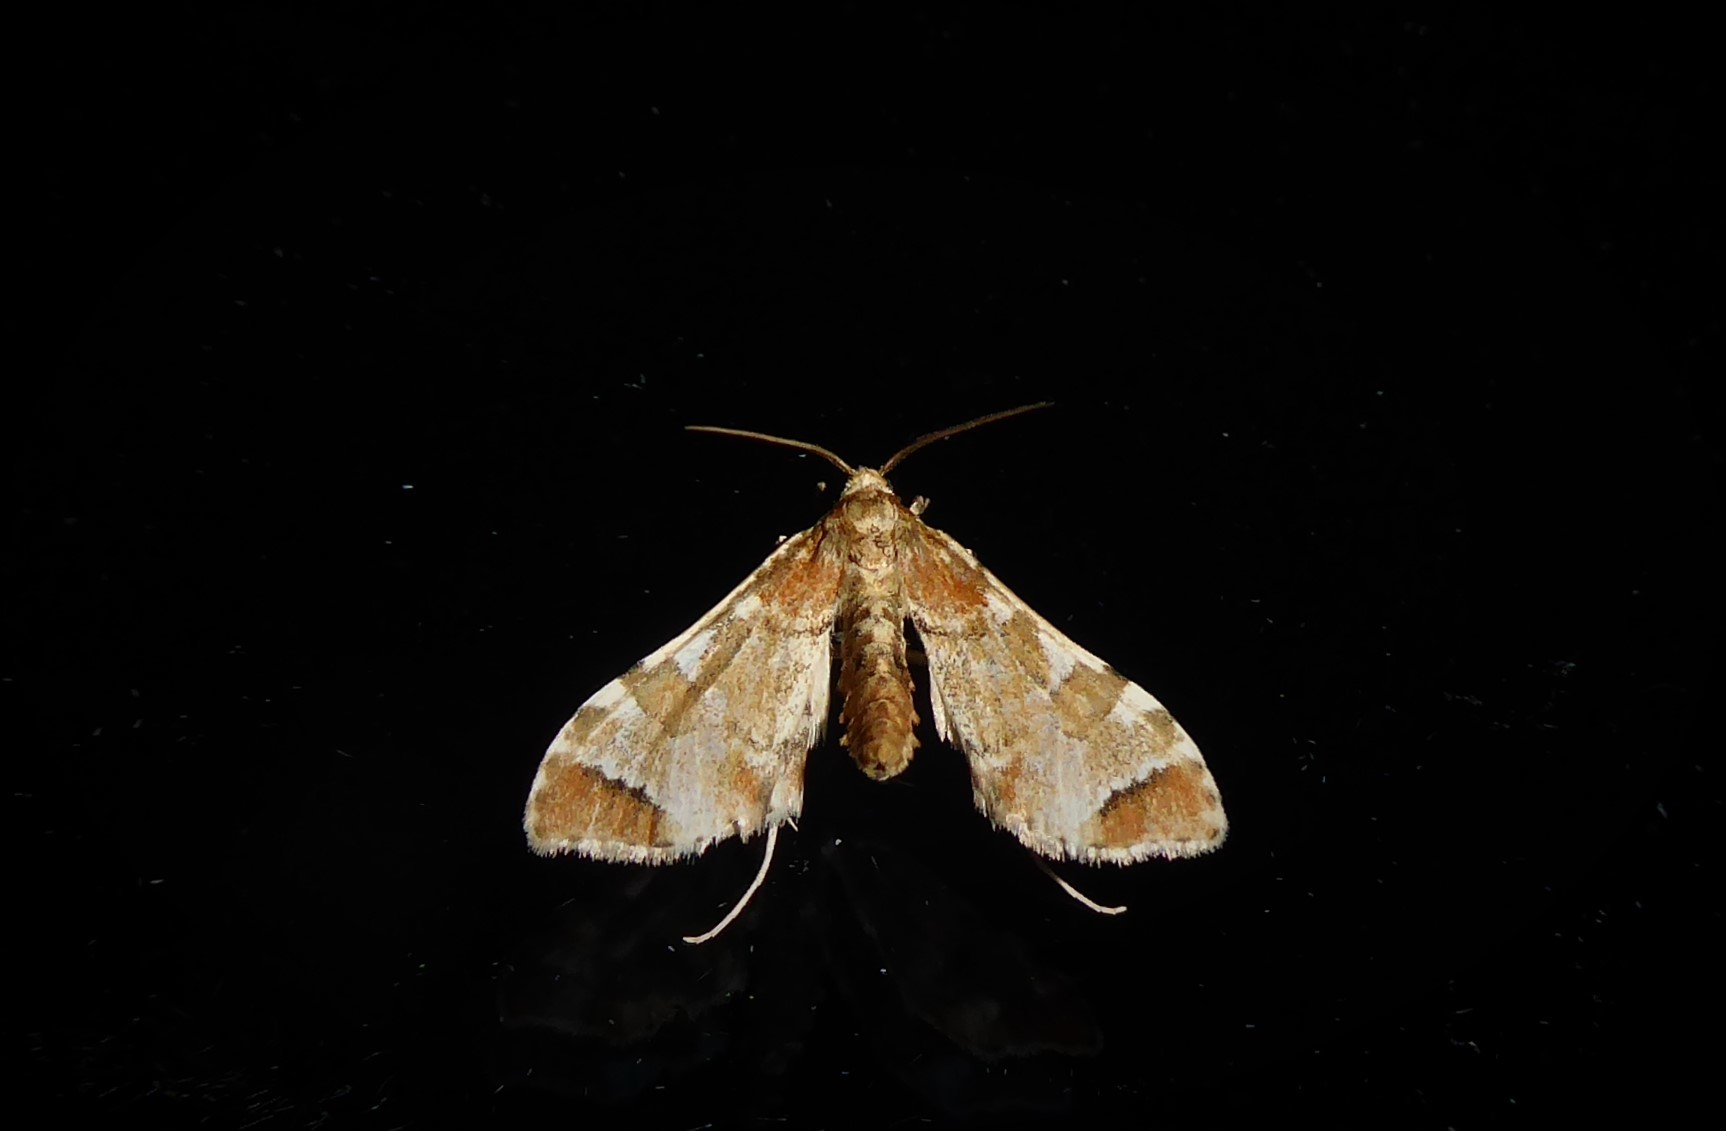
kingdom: Animalia
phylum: Arthropoda
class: Insecta
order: Lepidoptera
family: Crambidae
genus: Sceliodes
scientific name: Sceliodes cordalis
